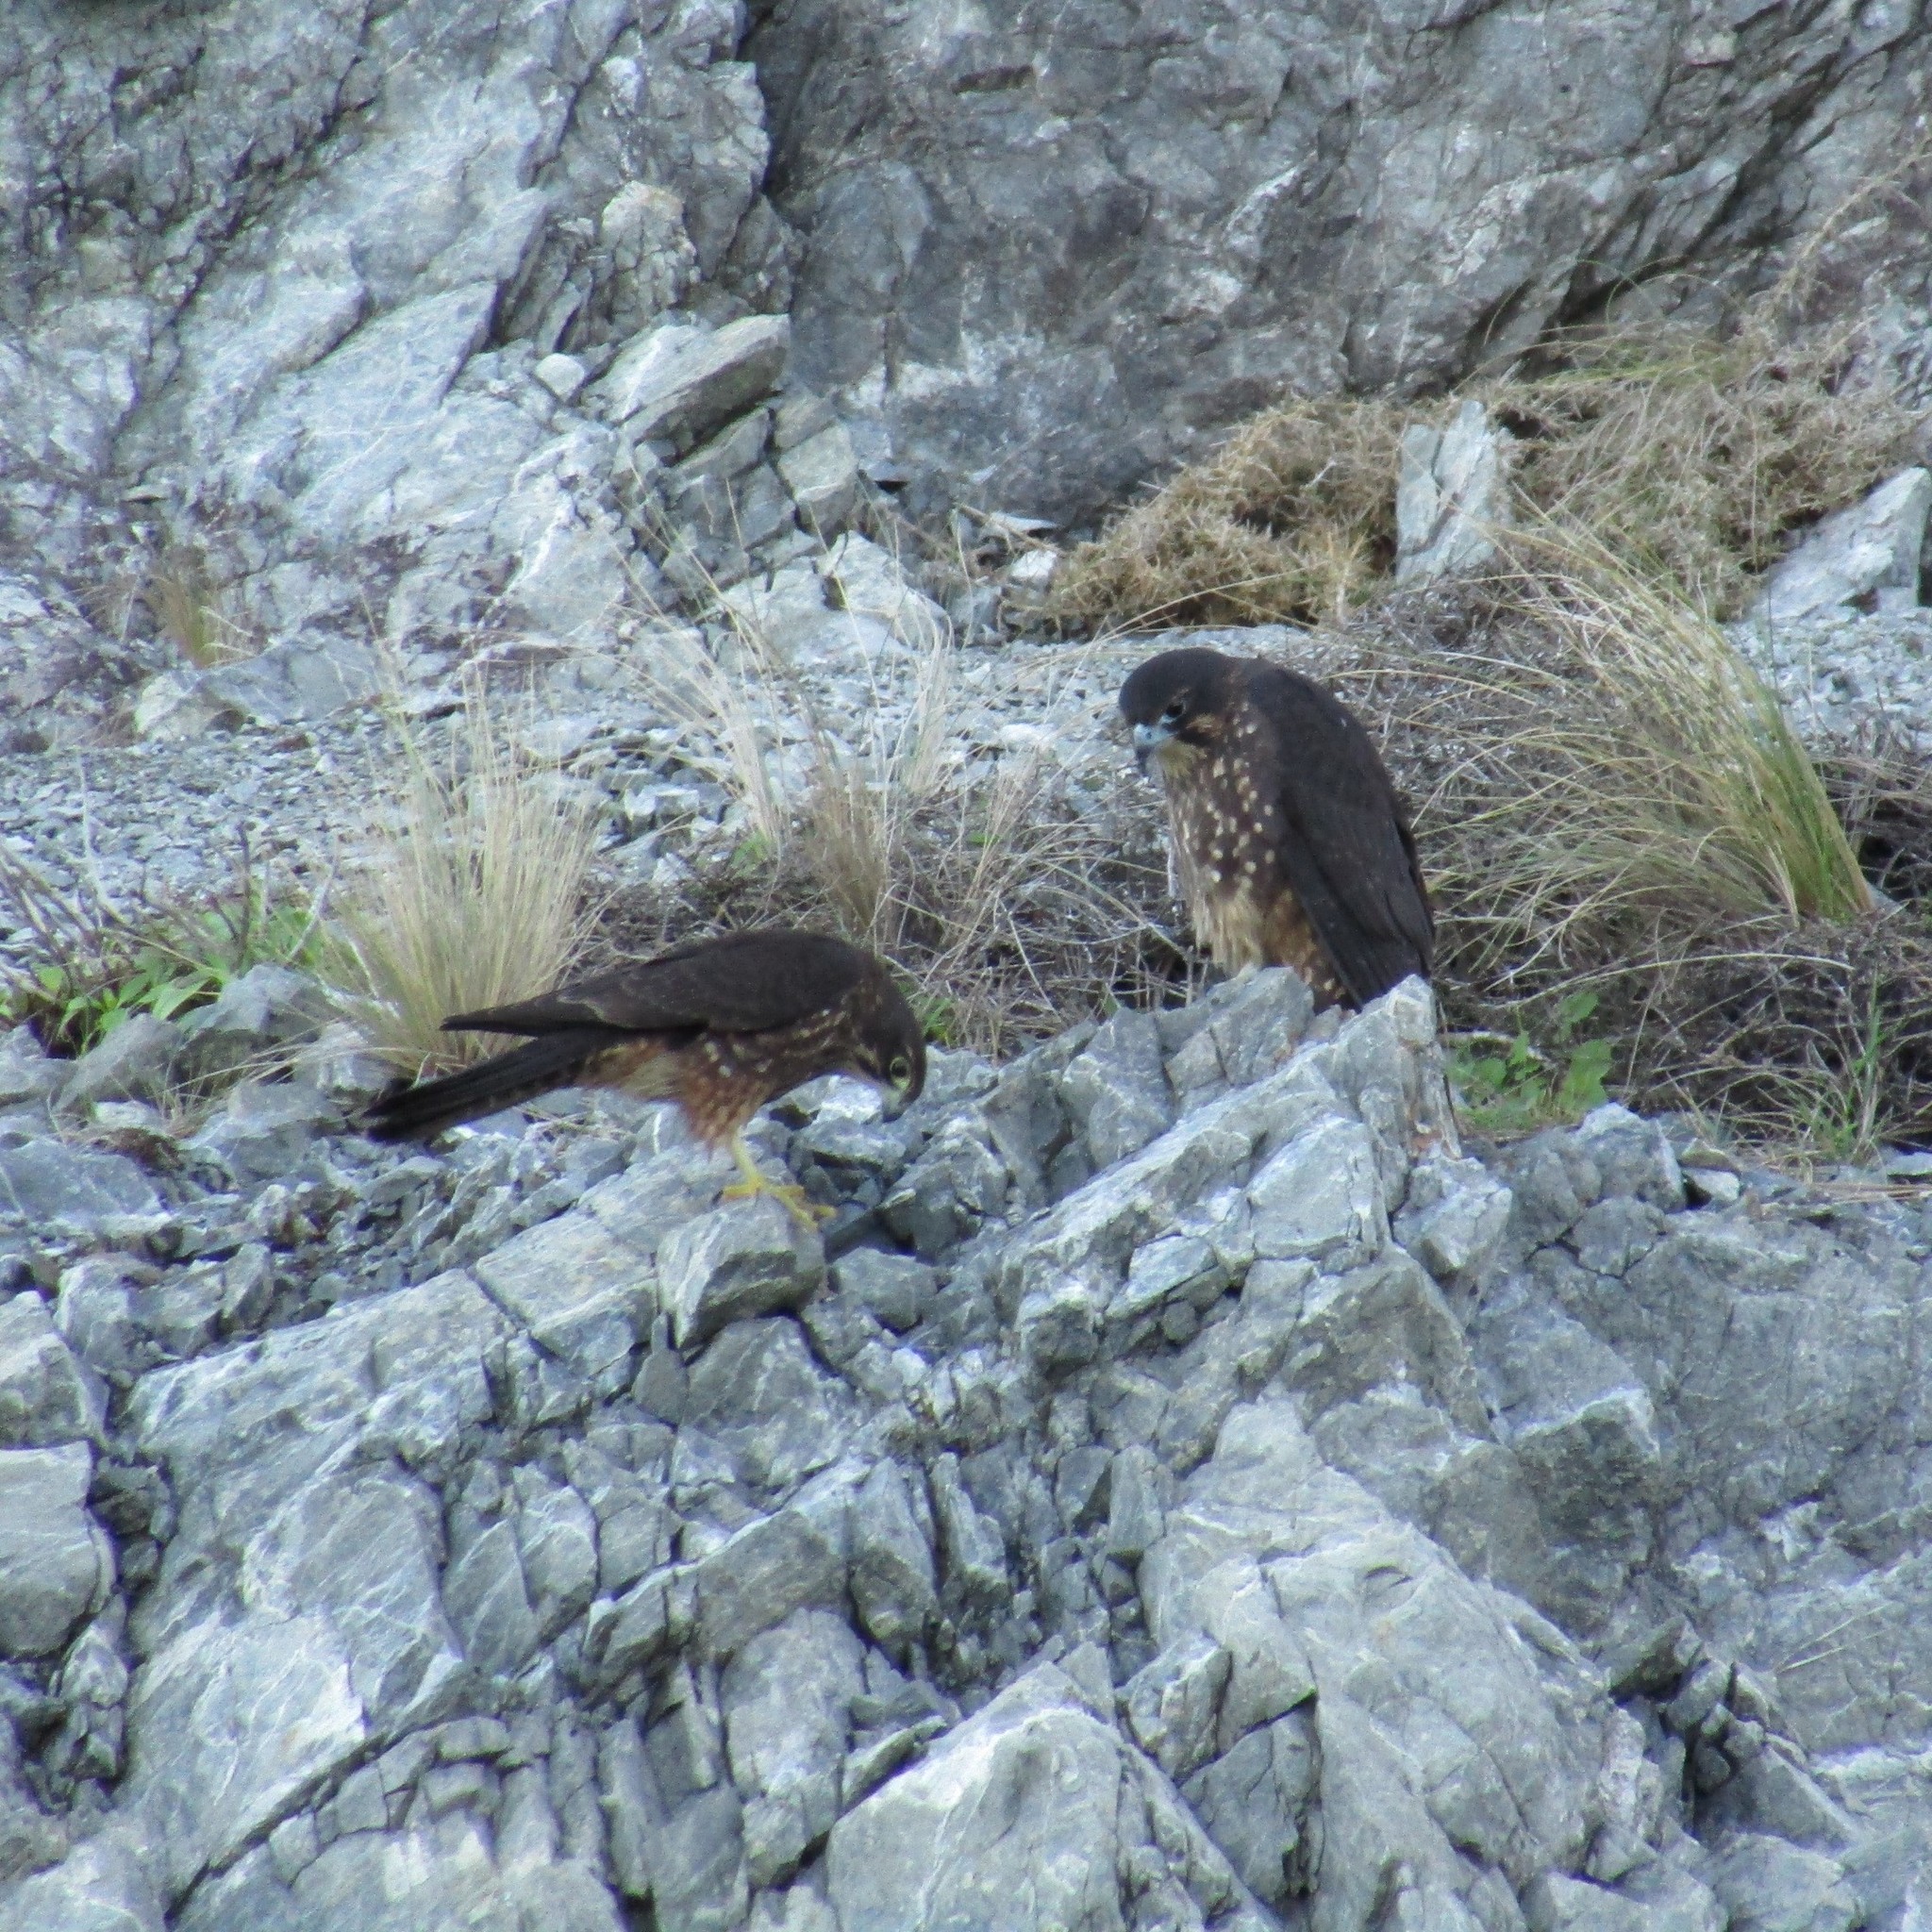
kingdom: Animalia
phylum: Chordata
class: Aves
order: Falconiformes
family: Falconidae
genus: Falco
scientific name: Falco novaeseelandiae
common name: New zealand falcon
